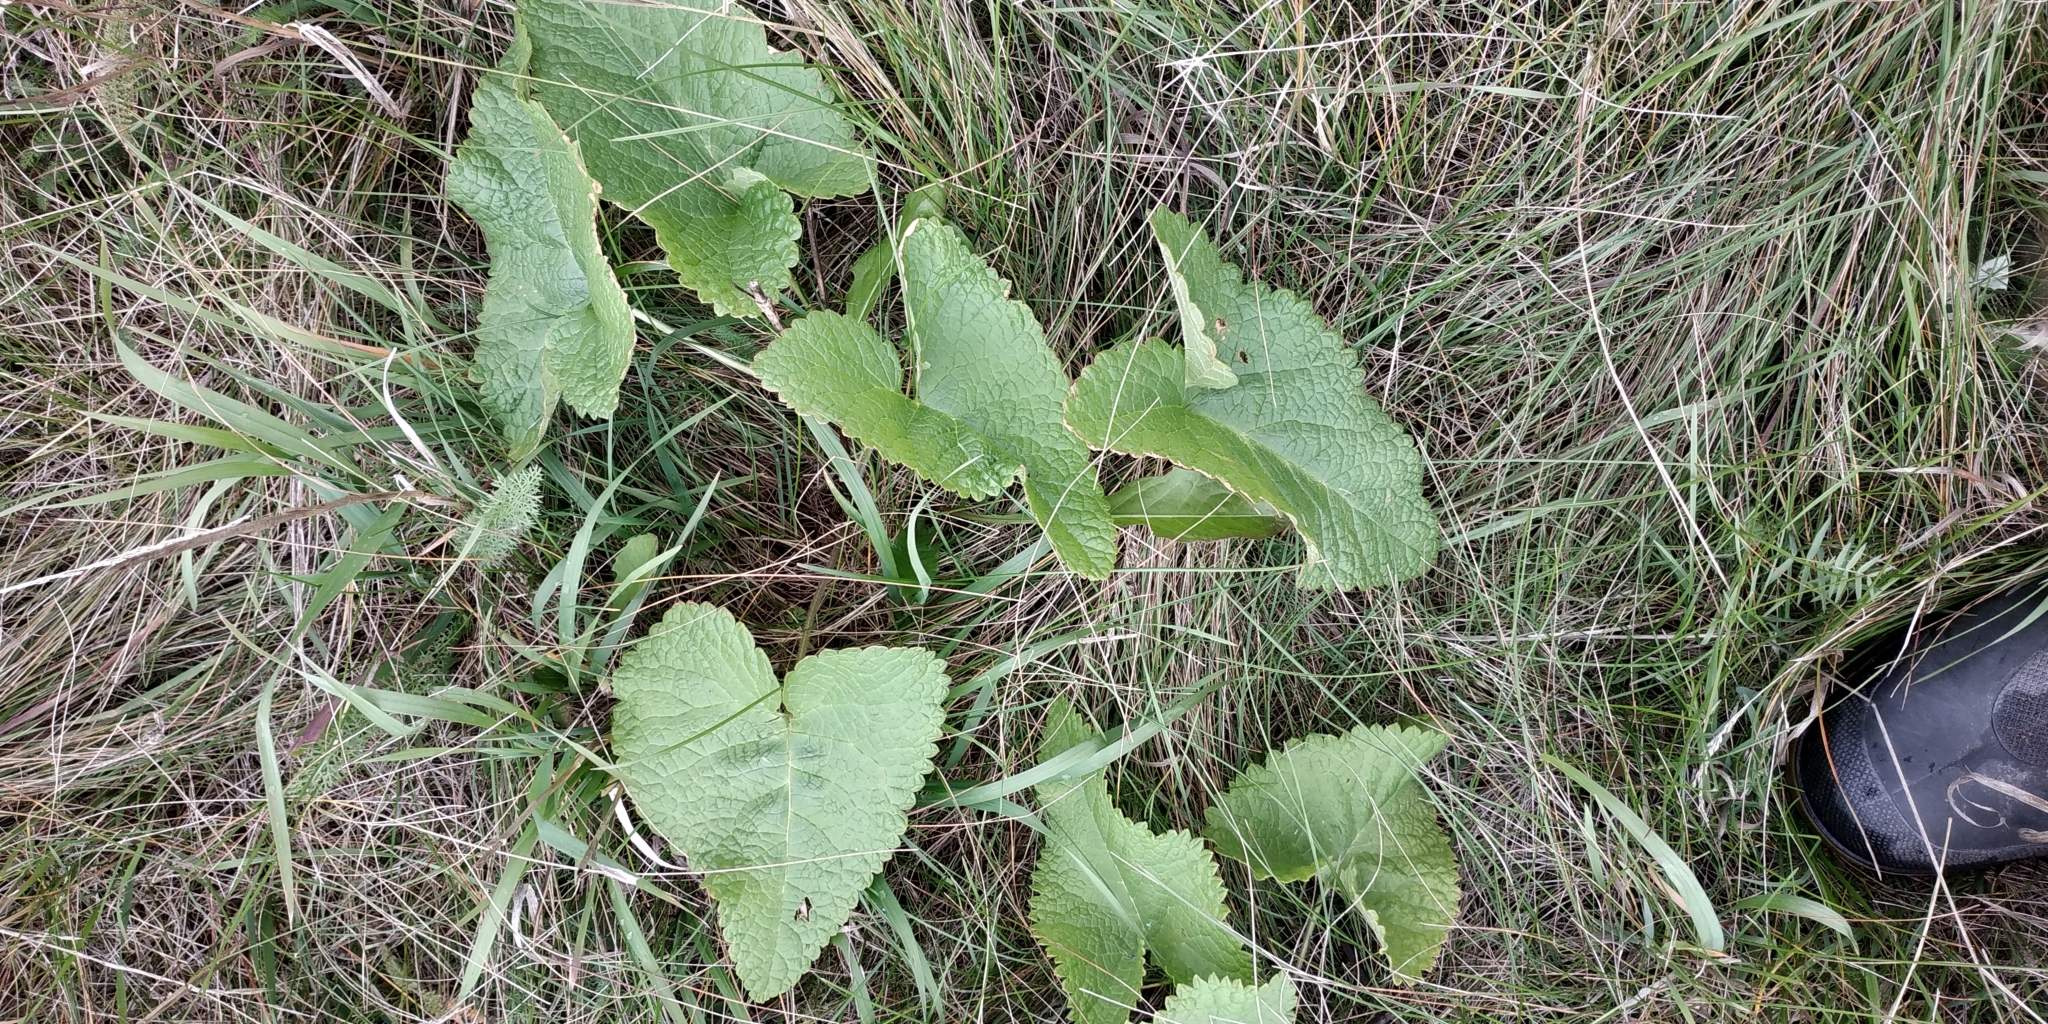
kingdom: Plantae
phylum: Tracheophyta
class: Magnoliopsida
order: Lamiales
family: Lamiaceae
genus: Phlomoides
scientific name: Phlomoides tuberosa
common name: Tuberous jerusalem sage
